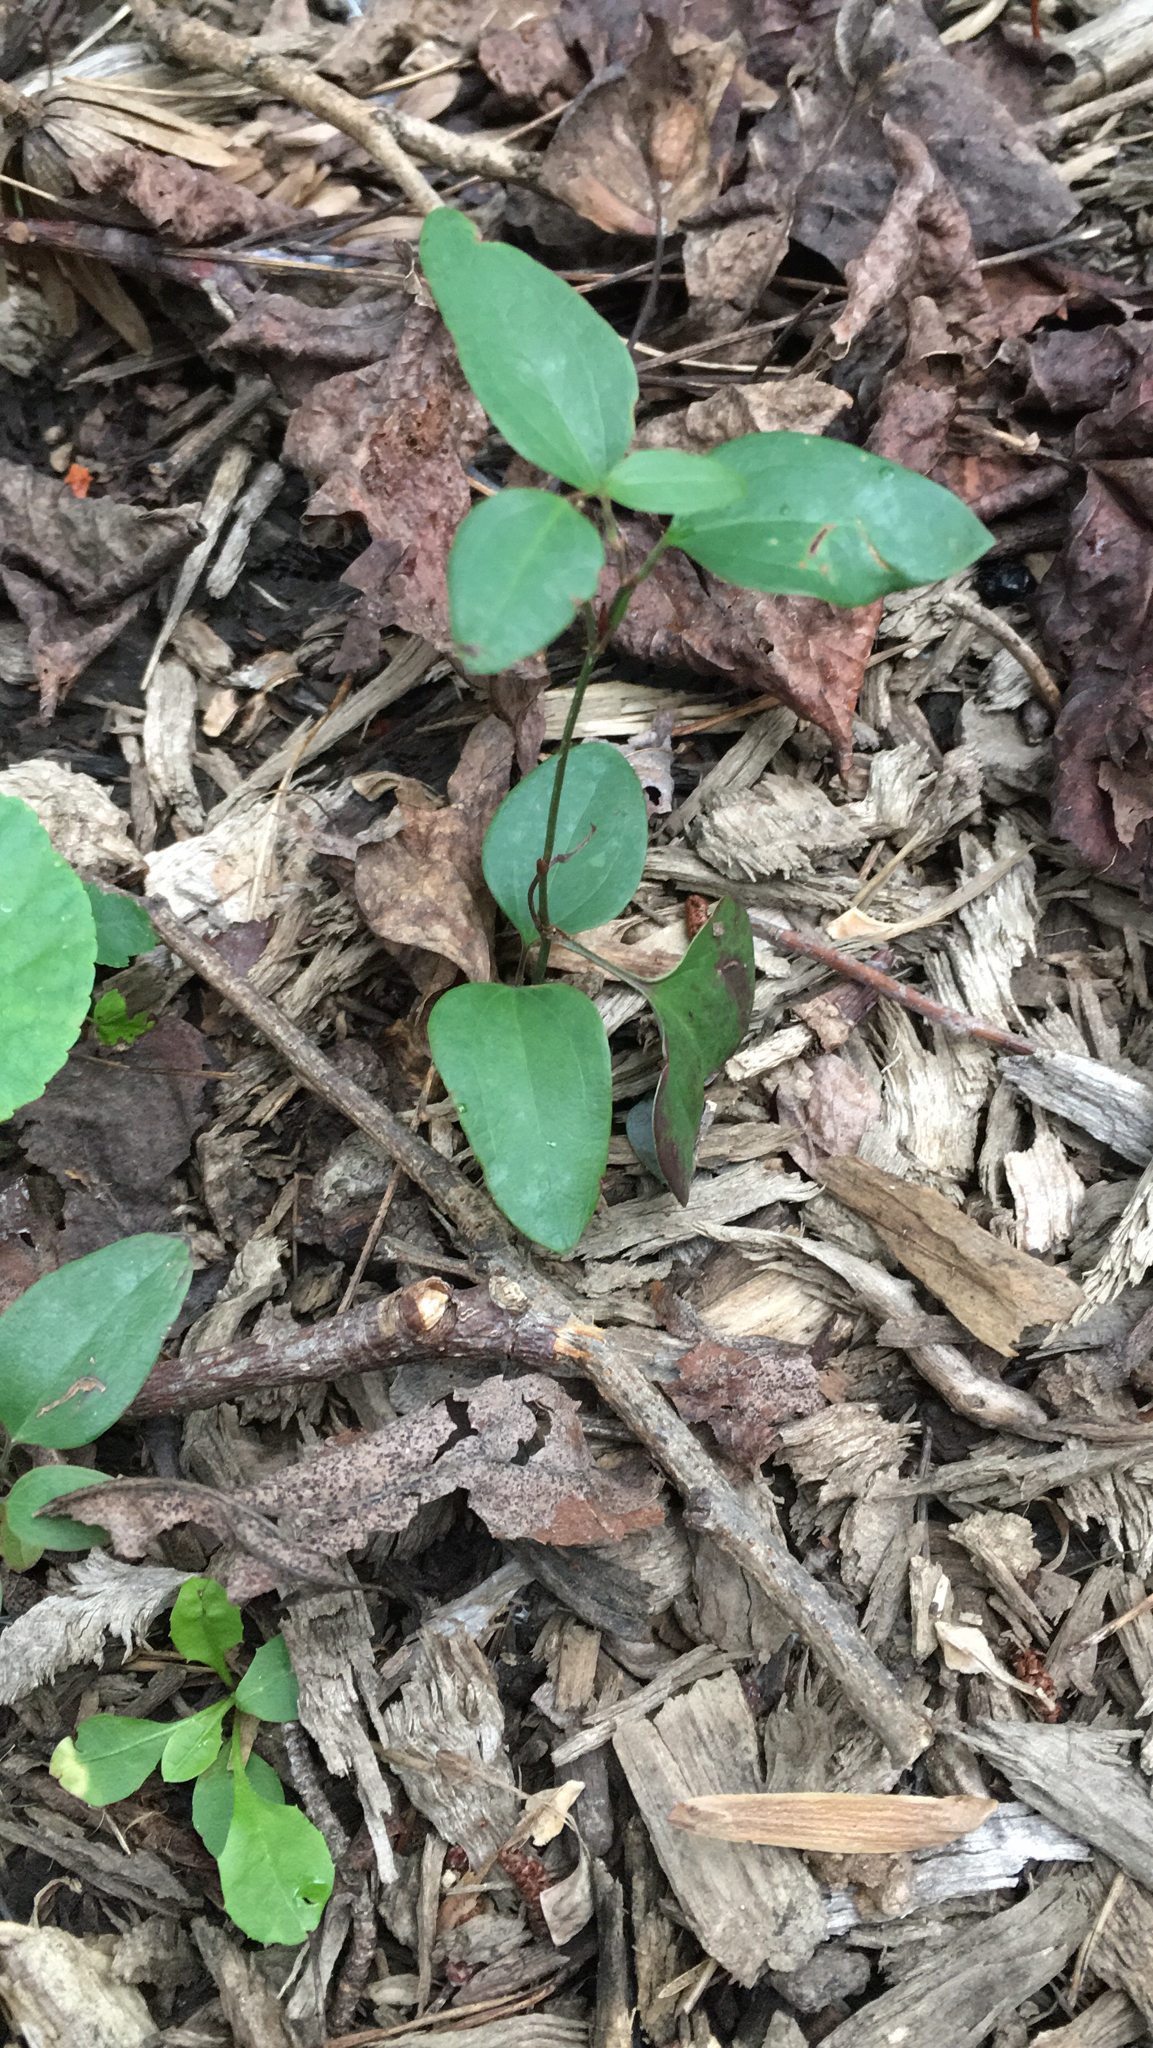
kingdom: Plantae
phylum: Tracheophyta
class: Liliopsida
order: Liliales
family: Smilacaceae
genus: Smilax
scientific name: Smilax glauca
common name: Cat greenbrier
